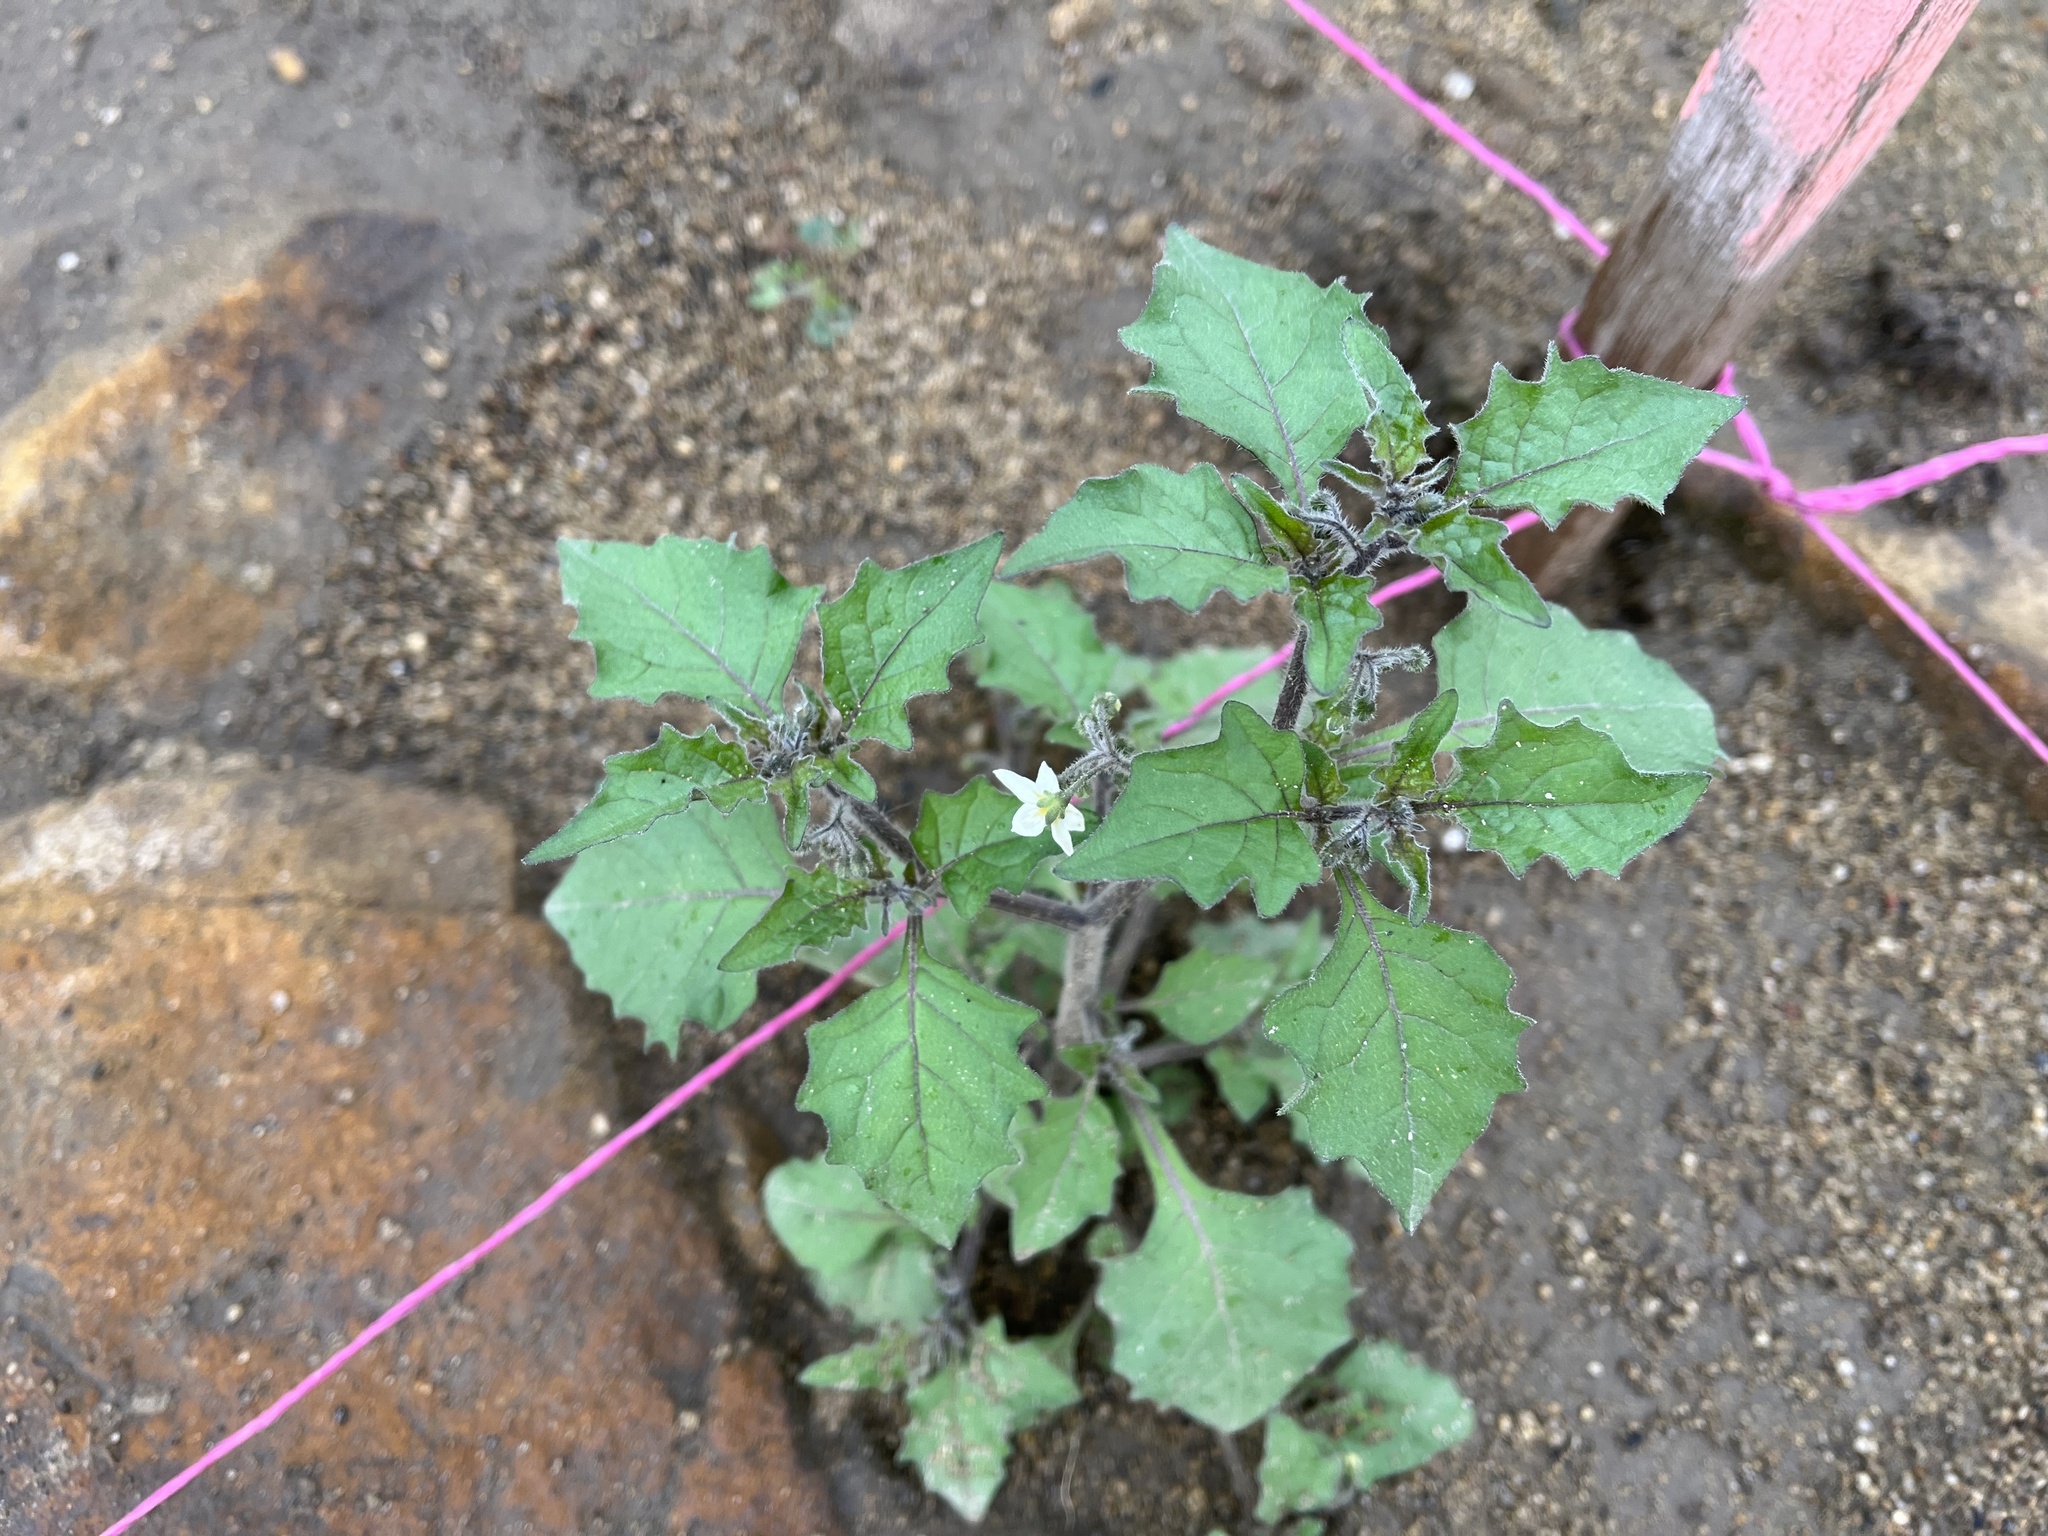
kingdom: Plantae
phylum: Tracheophyta
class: Magnoliopsida
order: Solanales
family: Solanaceae
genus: Solanum
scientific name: Solanum nigrum
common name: Black nightshade
